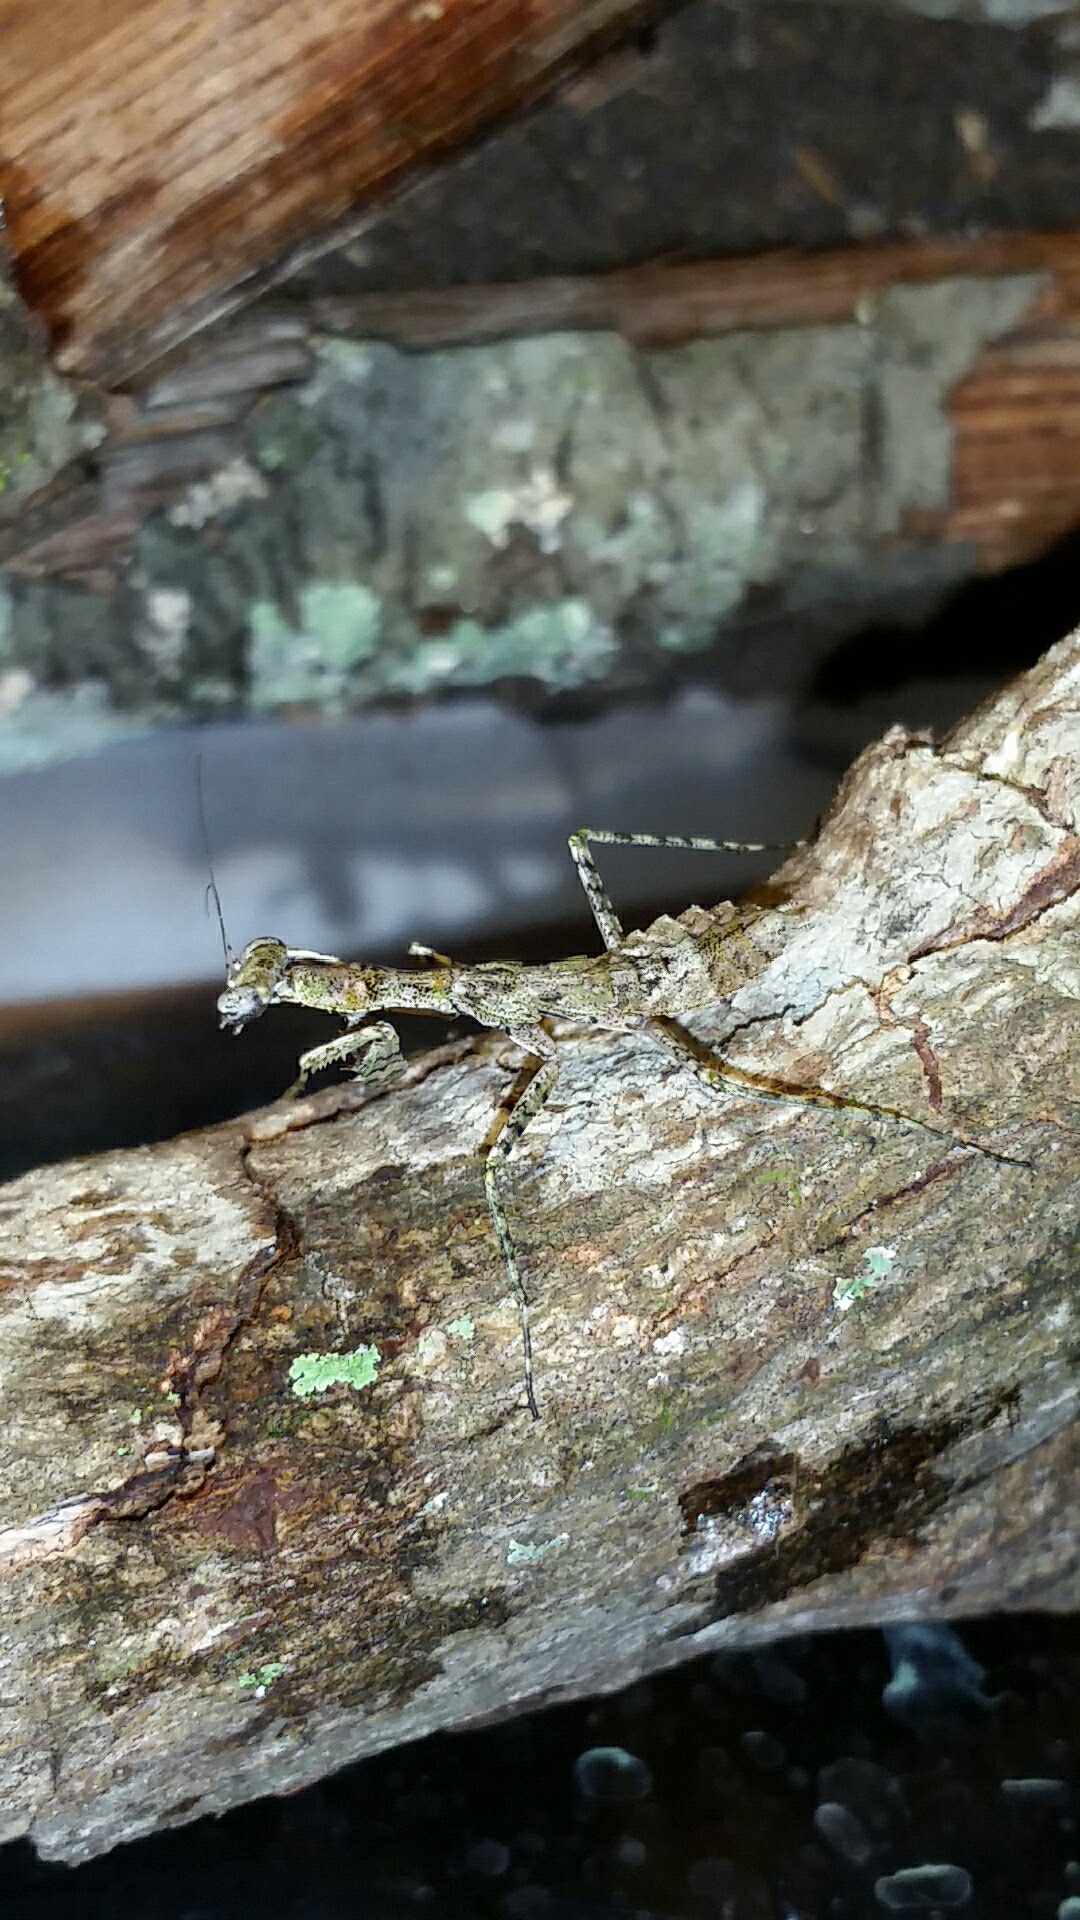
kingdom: Animalia
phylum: Arthropoda
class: Insecta
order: Mantodea
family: Epaphroditidae
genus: Gonatista
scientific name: Gonatista grisea
